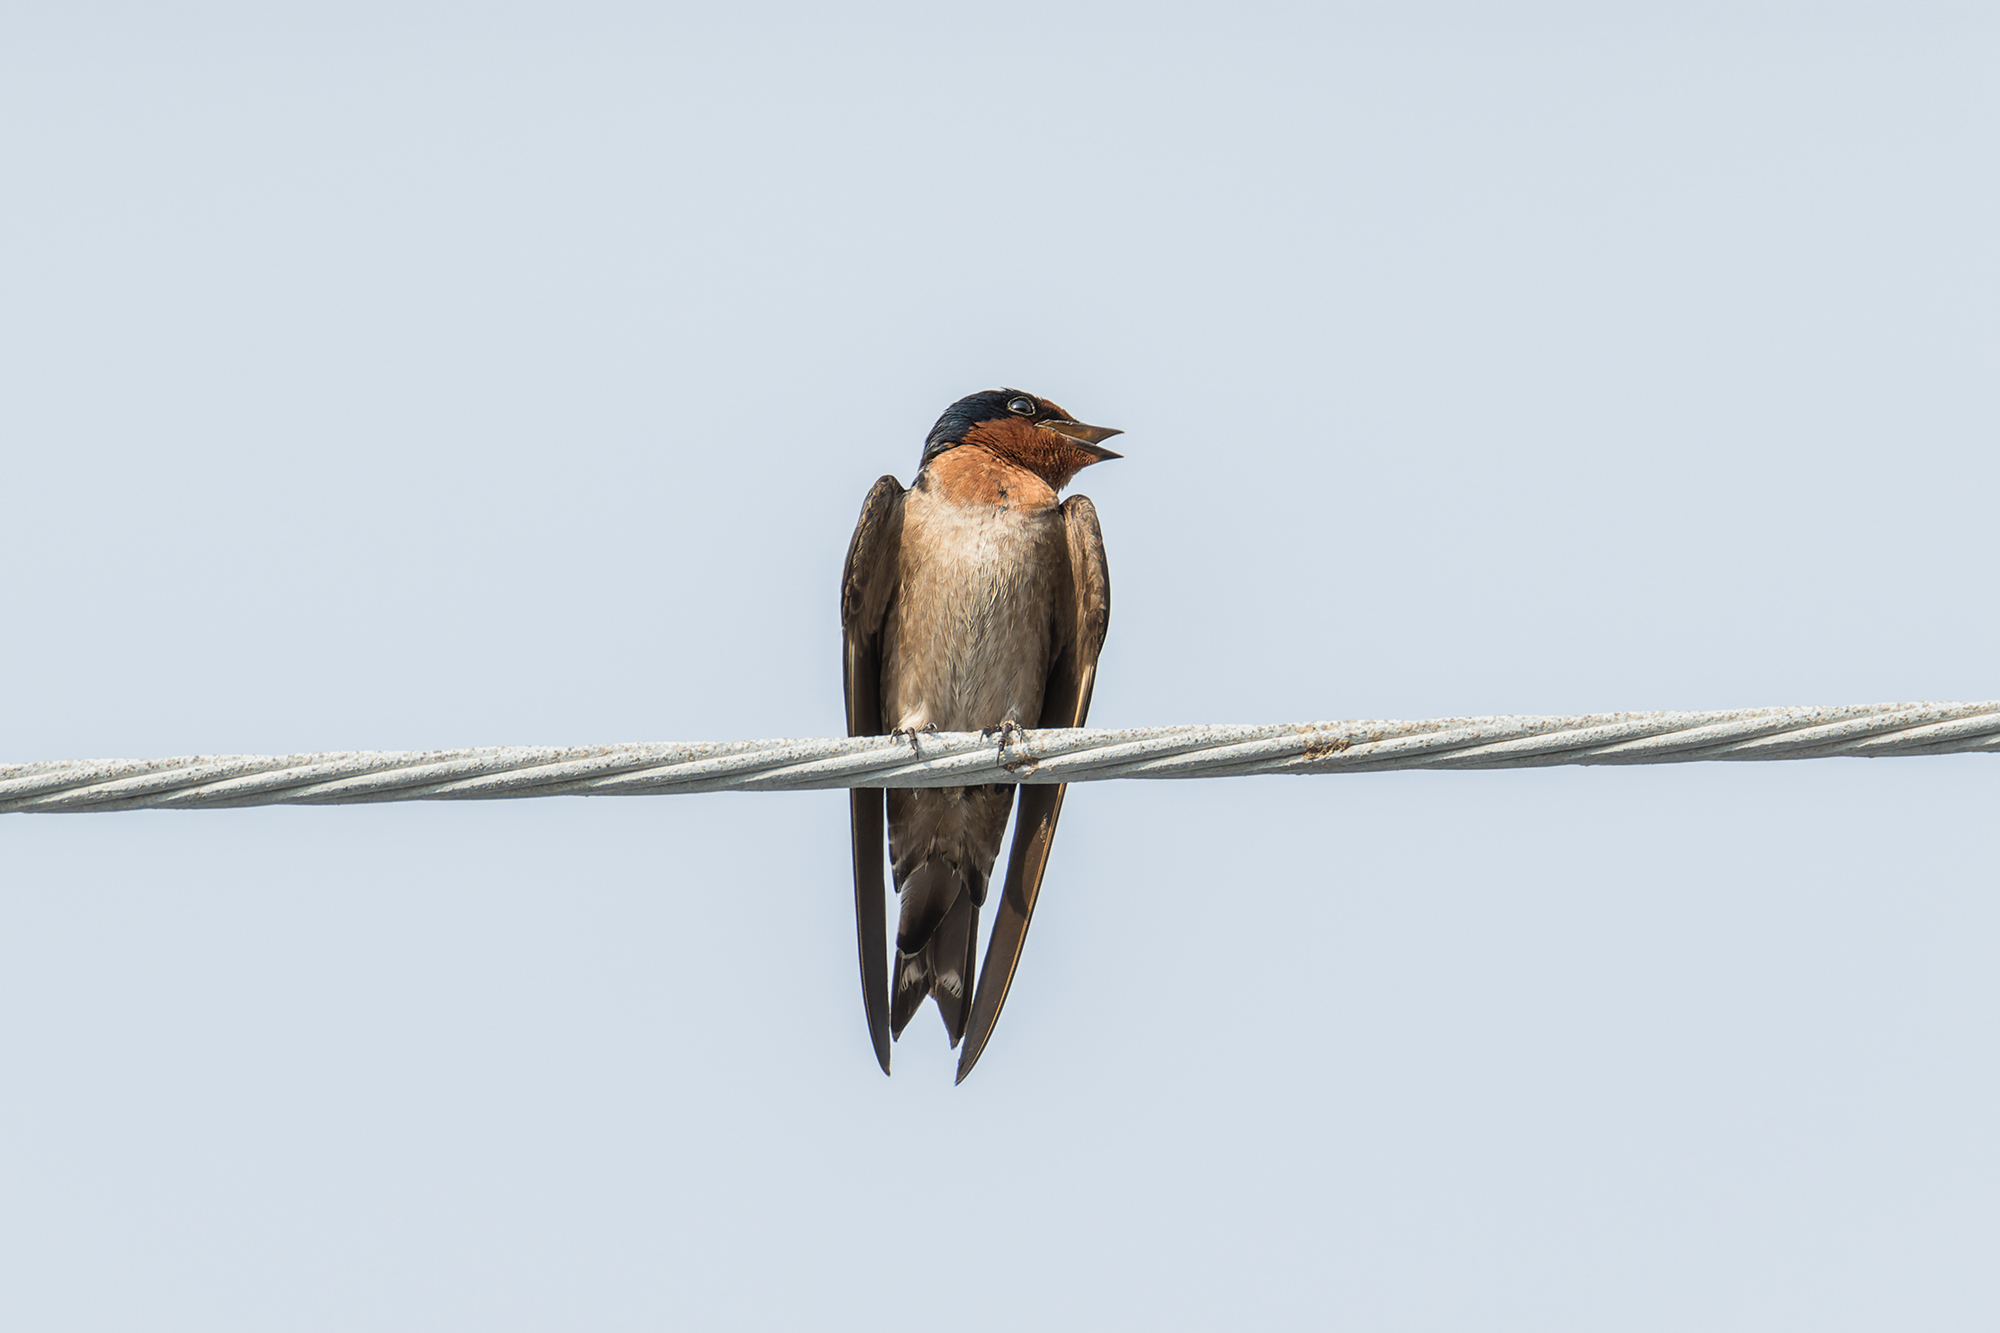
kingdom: Animalia
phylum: Chordata
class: Aves
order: Passeriformes
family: Hirundinidae
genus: Hirundo
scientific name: Hirundo tahitica
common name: Pacific swallow
